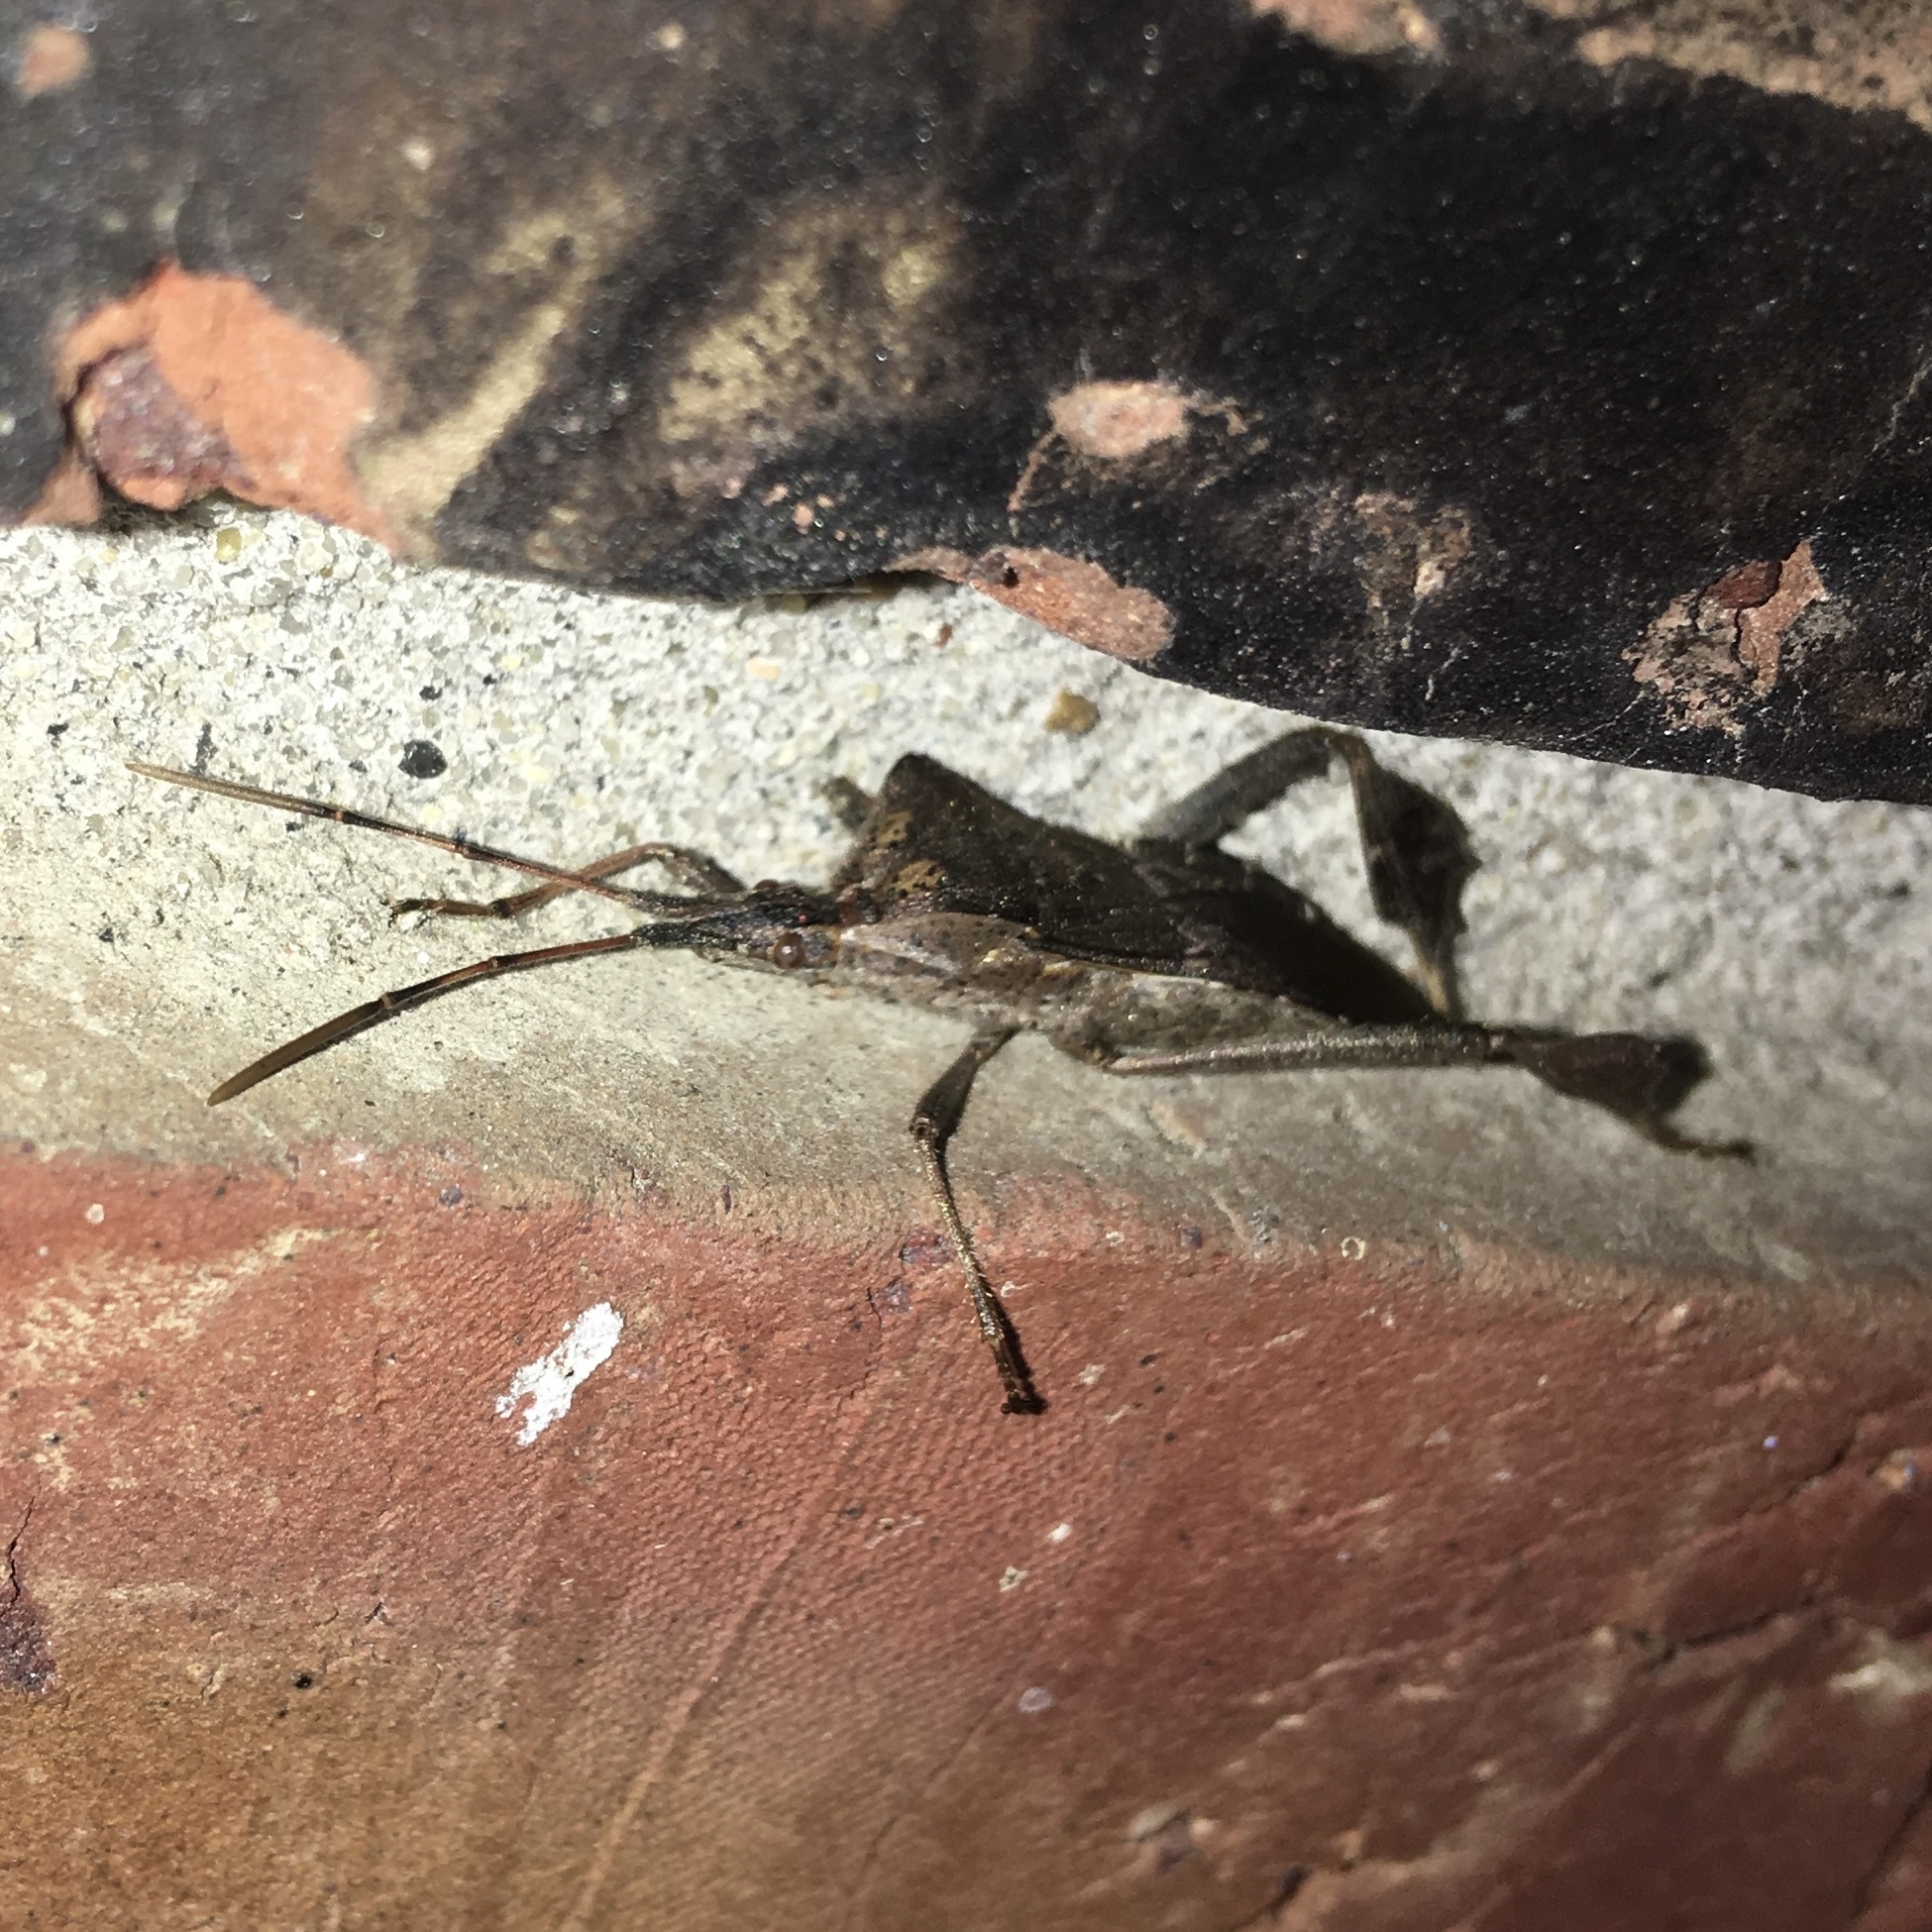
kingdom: Animalia
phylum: Arthropoda
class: Insecta
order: Hemiptera
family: Coreidae
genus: Leptoglossus
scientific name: Leptoglossus zonatus
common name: Large-legged bug
